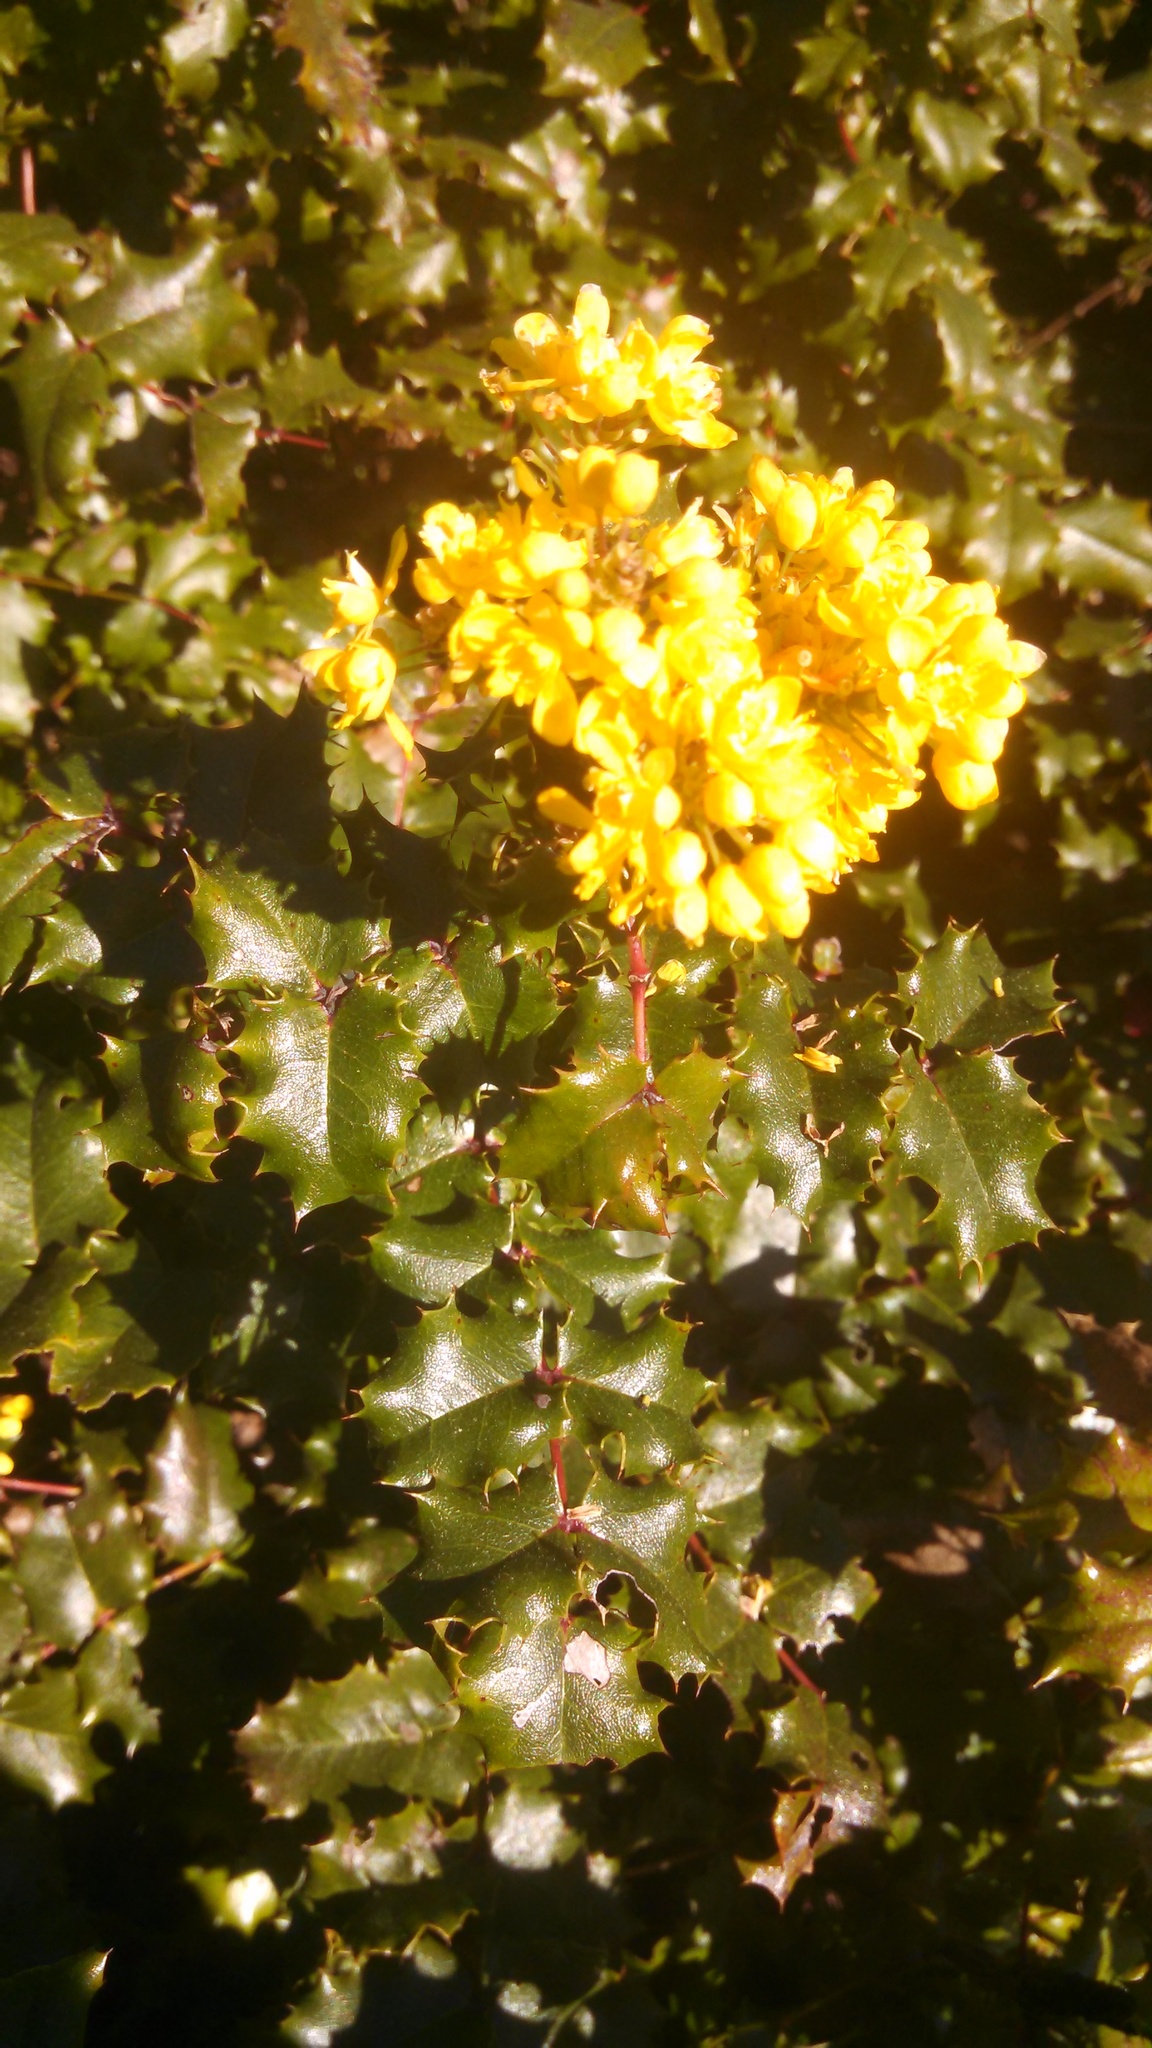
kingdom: Plantae
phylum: Tracheophyta
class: Magnoliopsida
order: Ranunculales
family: Berberidaceae
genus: Mahonia
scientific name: Mahonia
